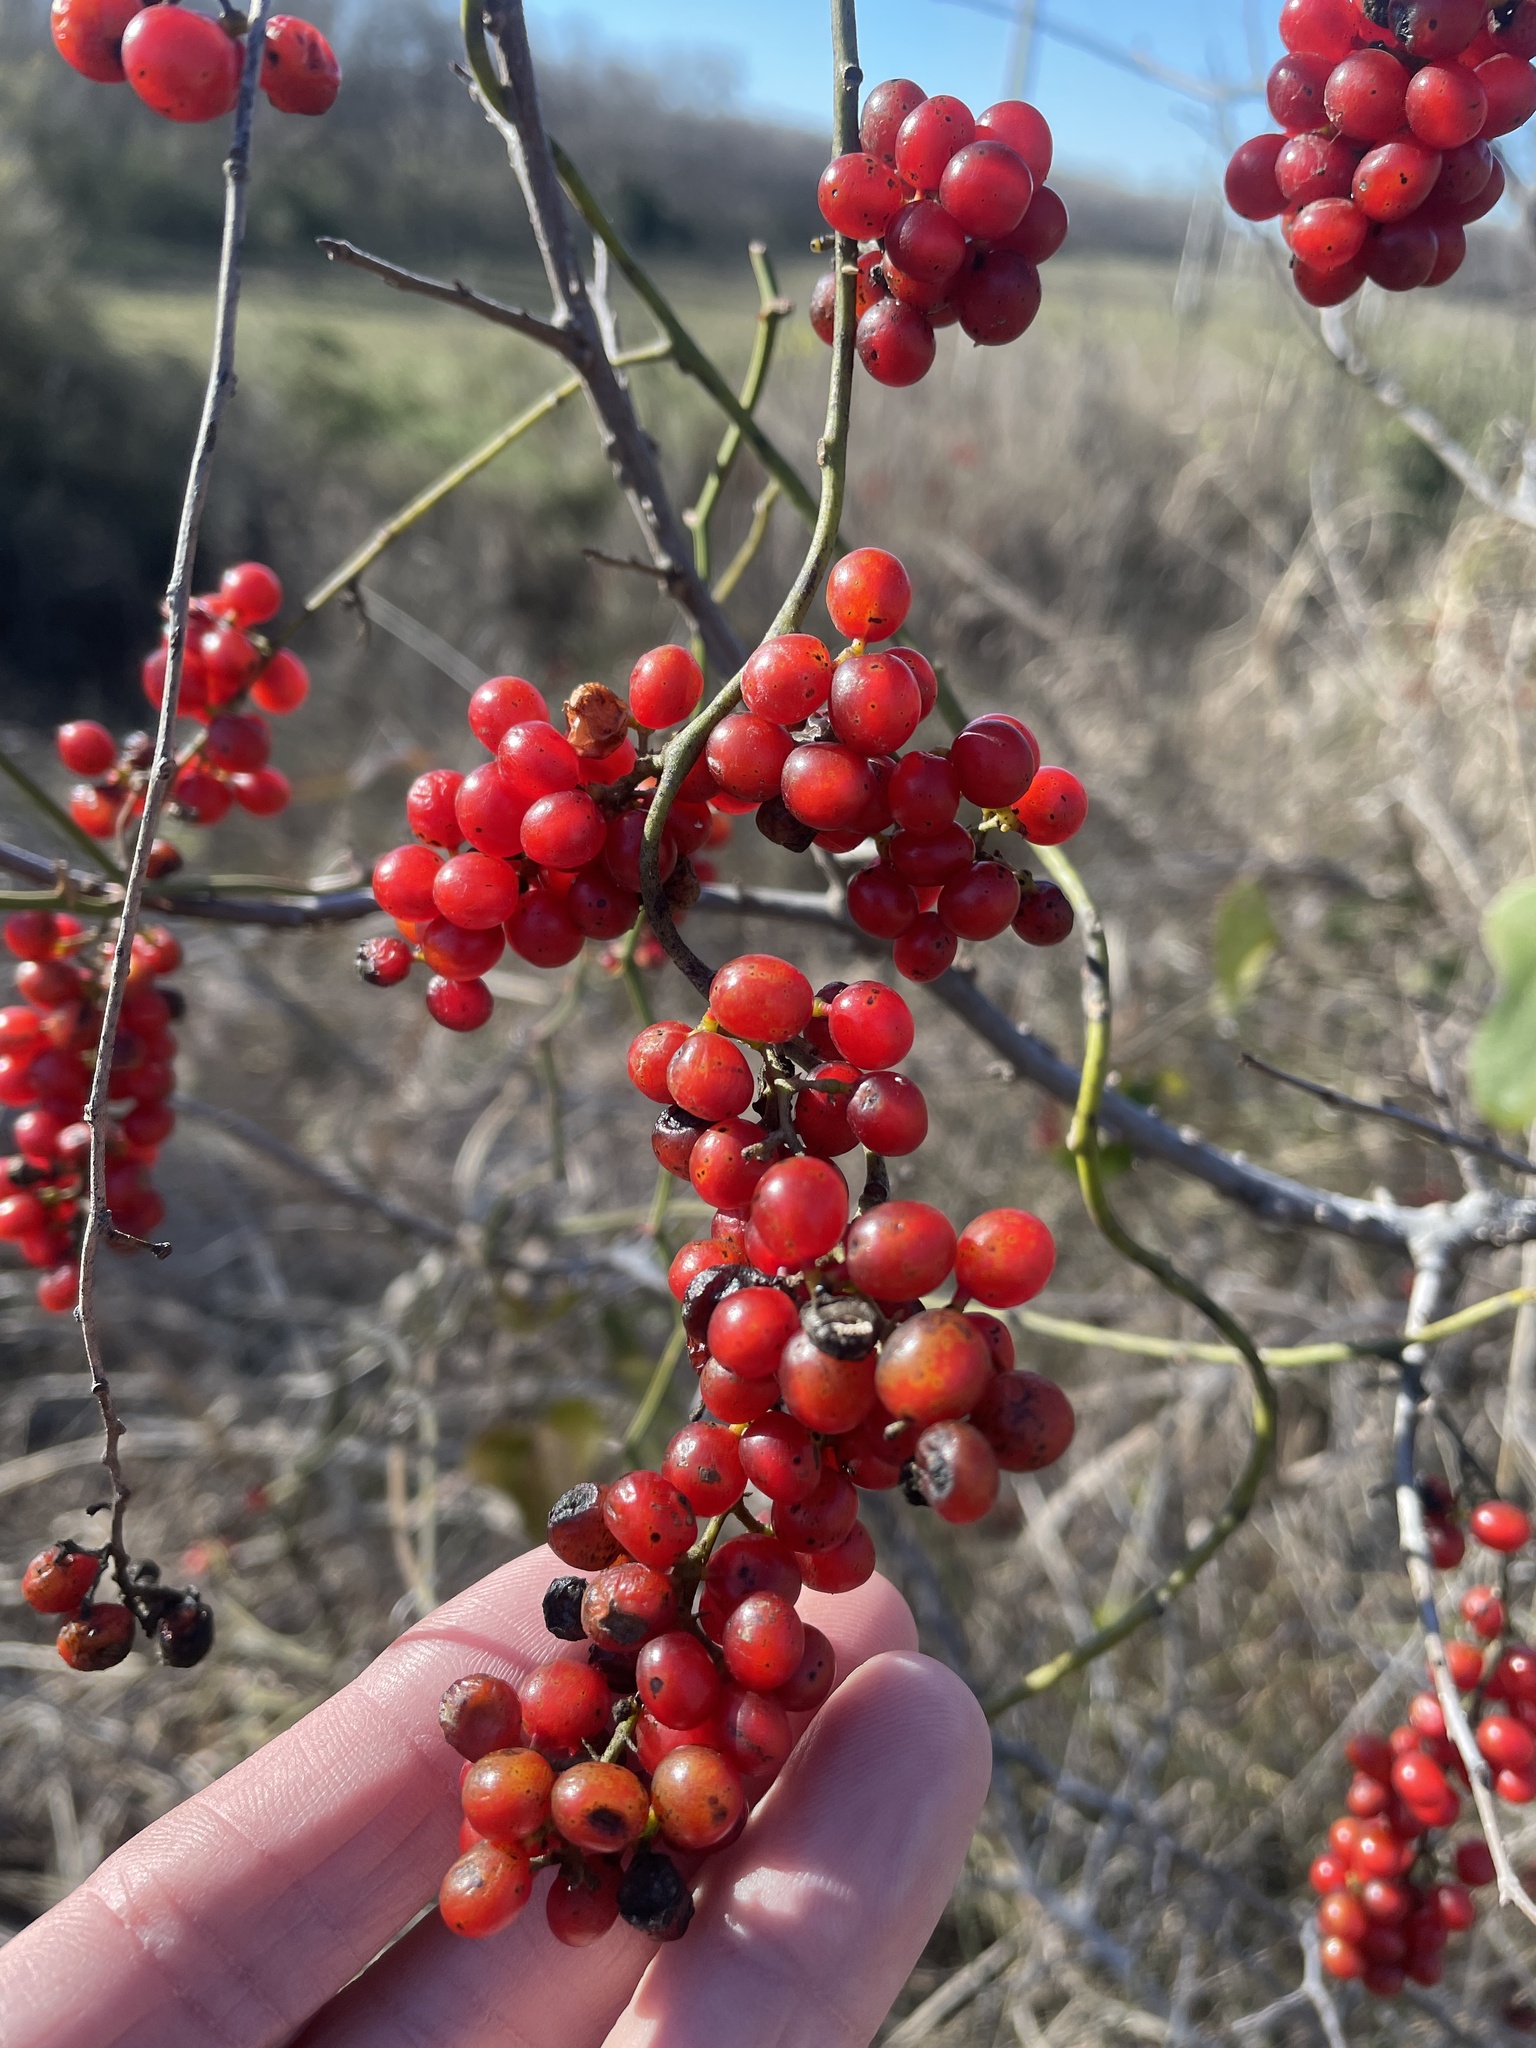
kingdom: Plantae
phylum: Tracheophyta
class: Magnoliopsida
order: Ranunculales
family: Menispermaceae
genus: Cocculus
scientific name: Cocculus carolinus
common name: Carolina moonseed
